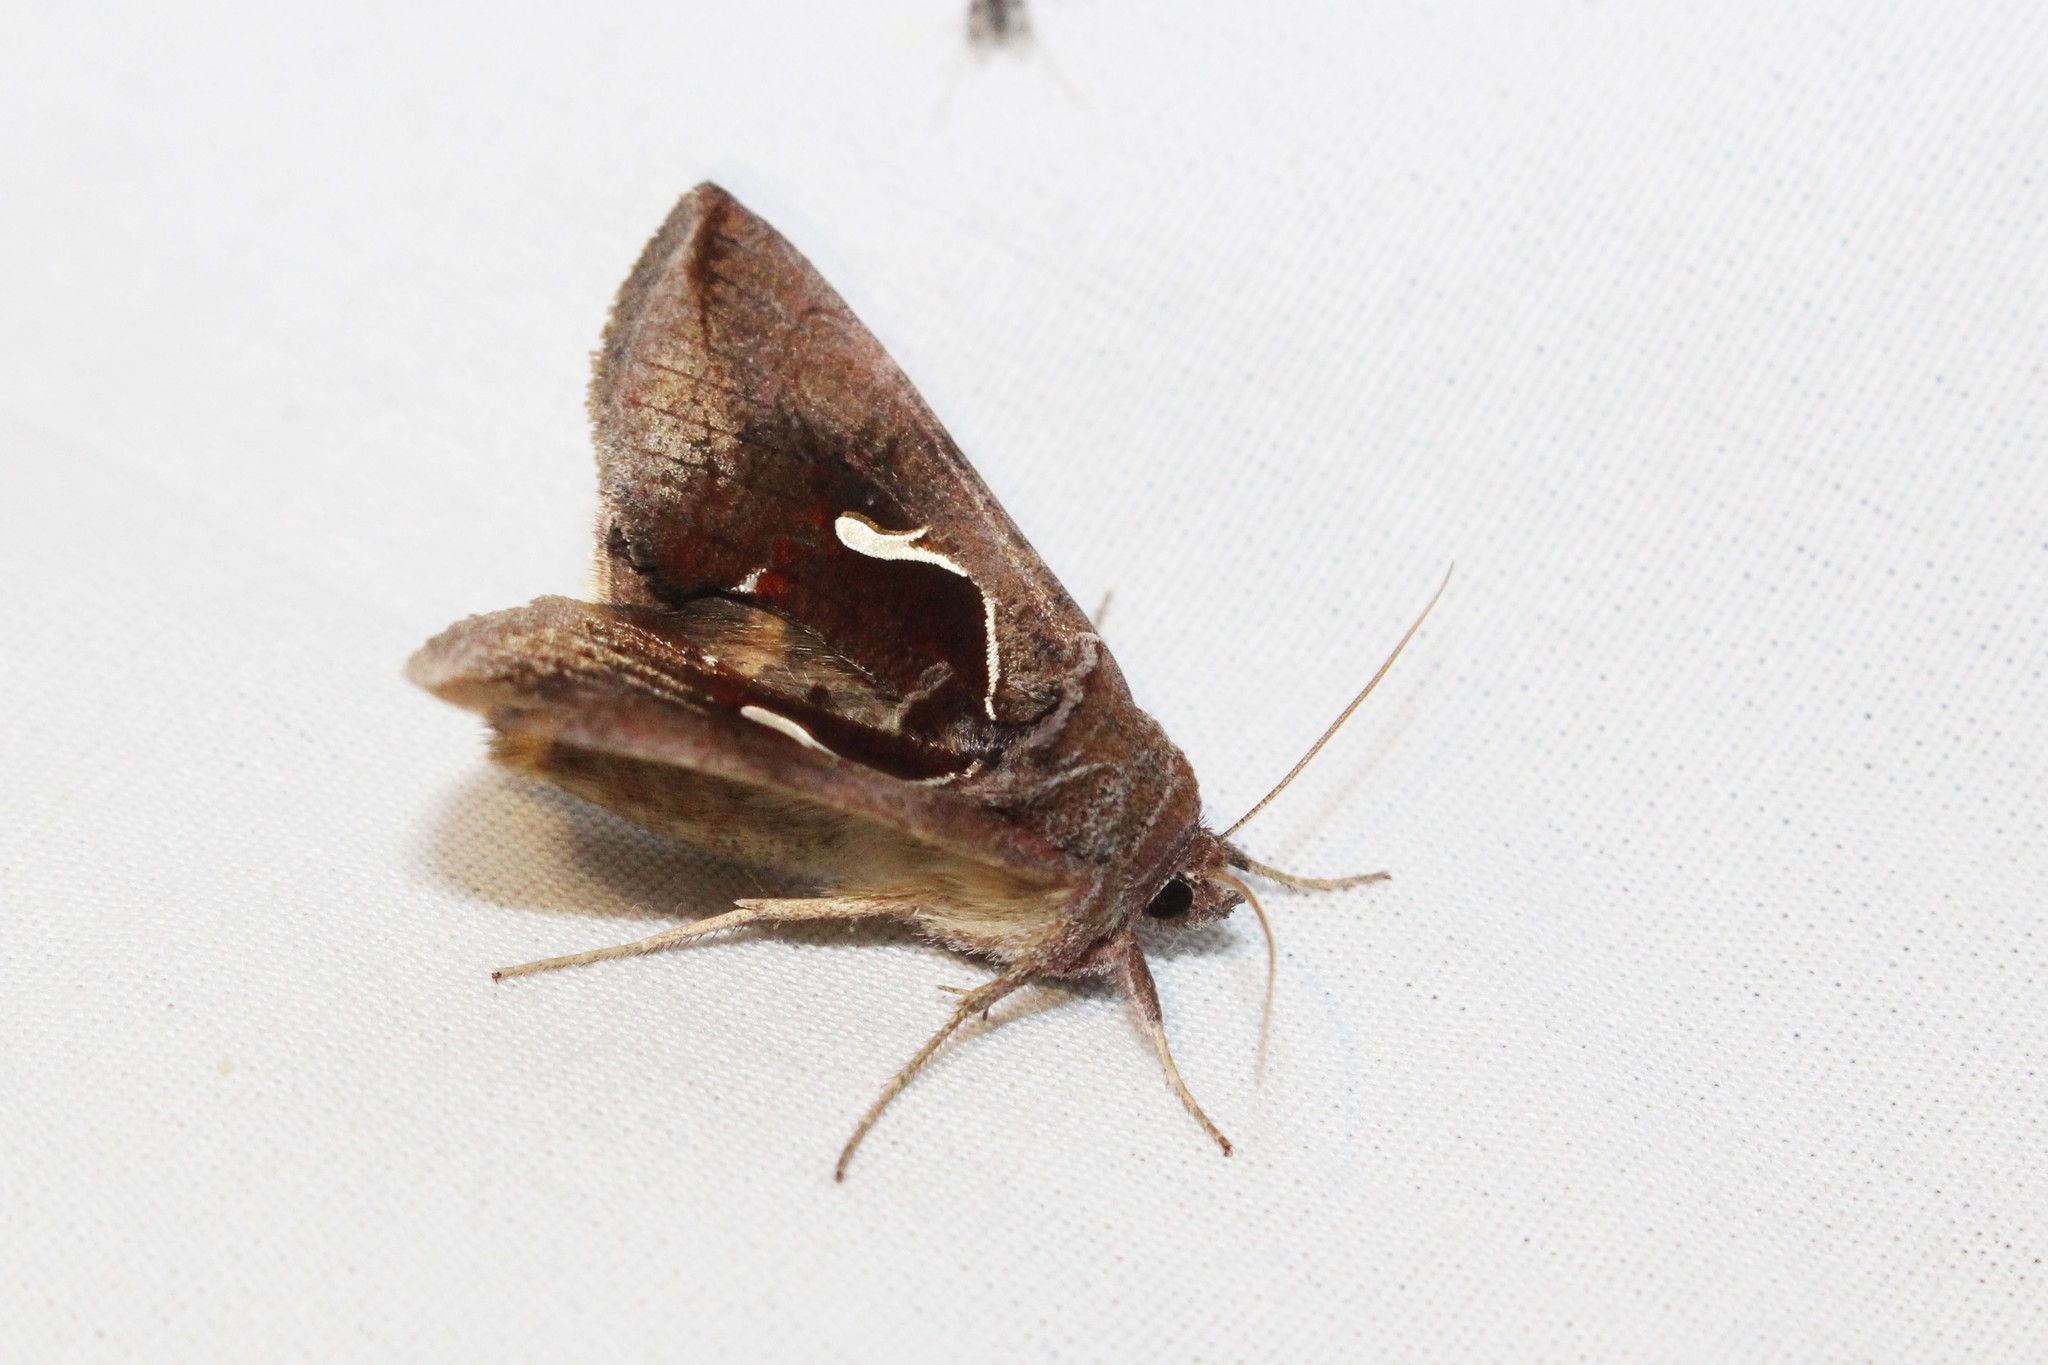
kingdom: Animalia
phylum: Arthropoda
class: Insecta
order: Lepidoptera
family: Noctuidae
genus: Anagrapha
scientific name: Anagrapha falcifera
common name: Celery looper
